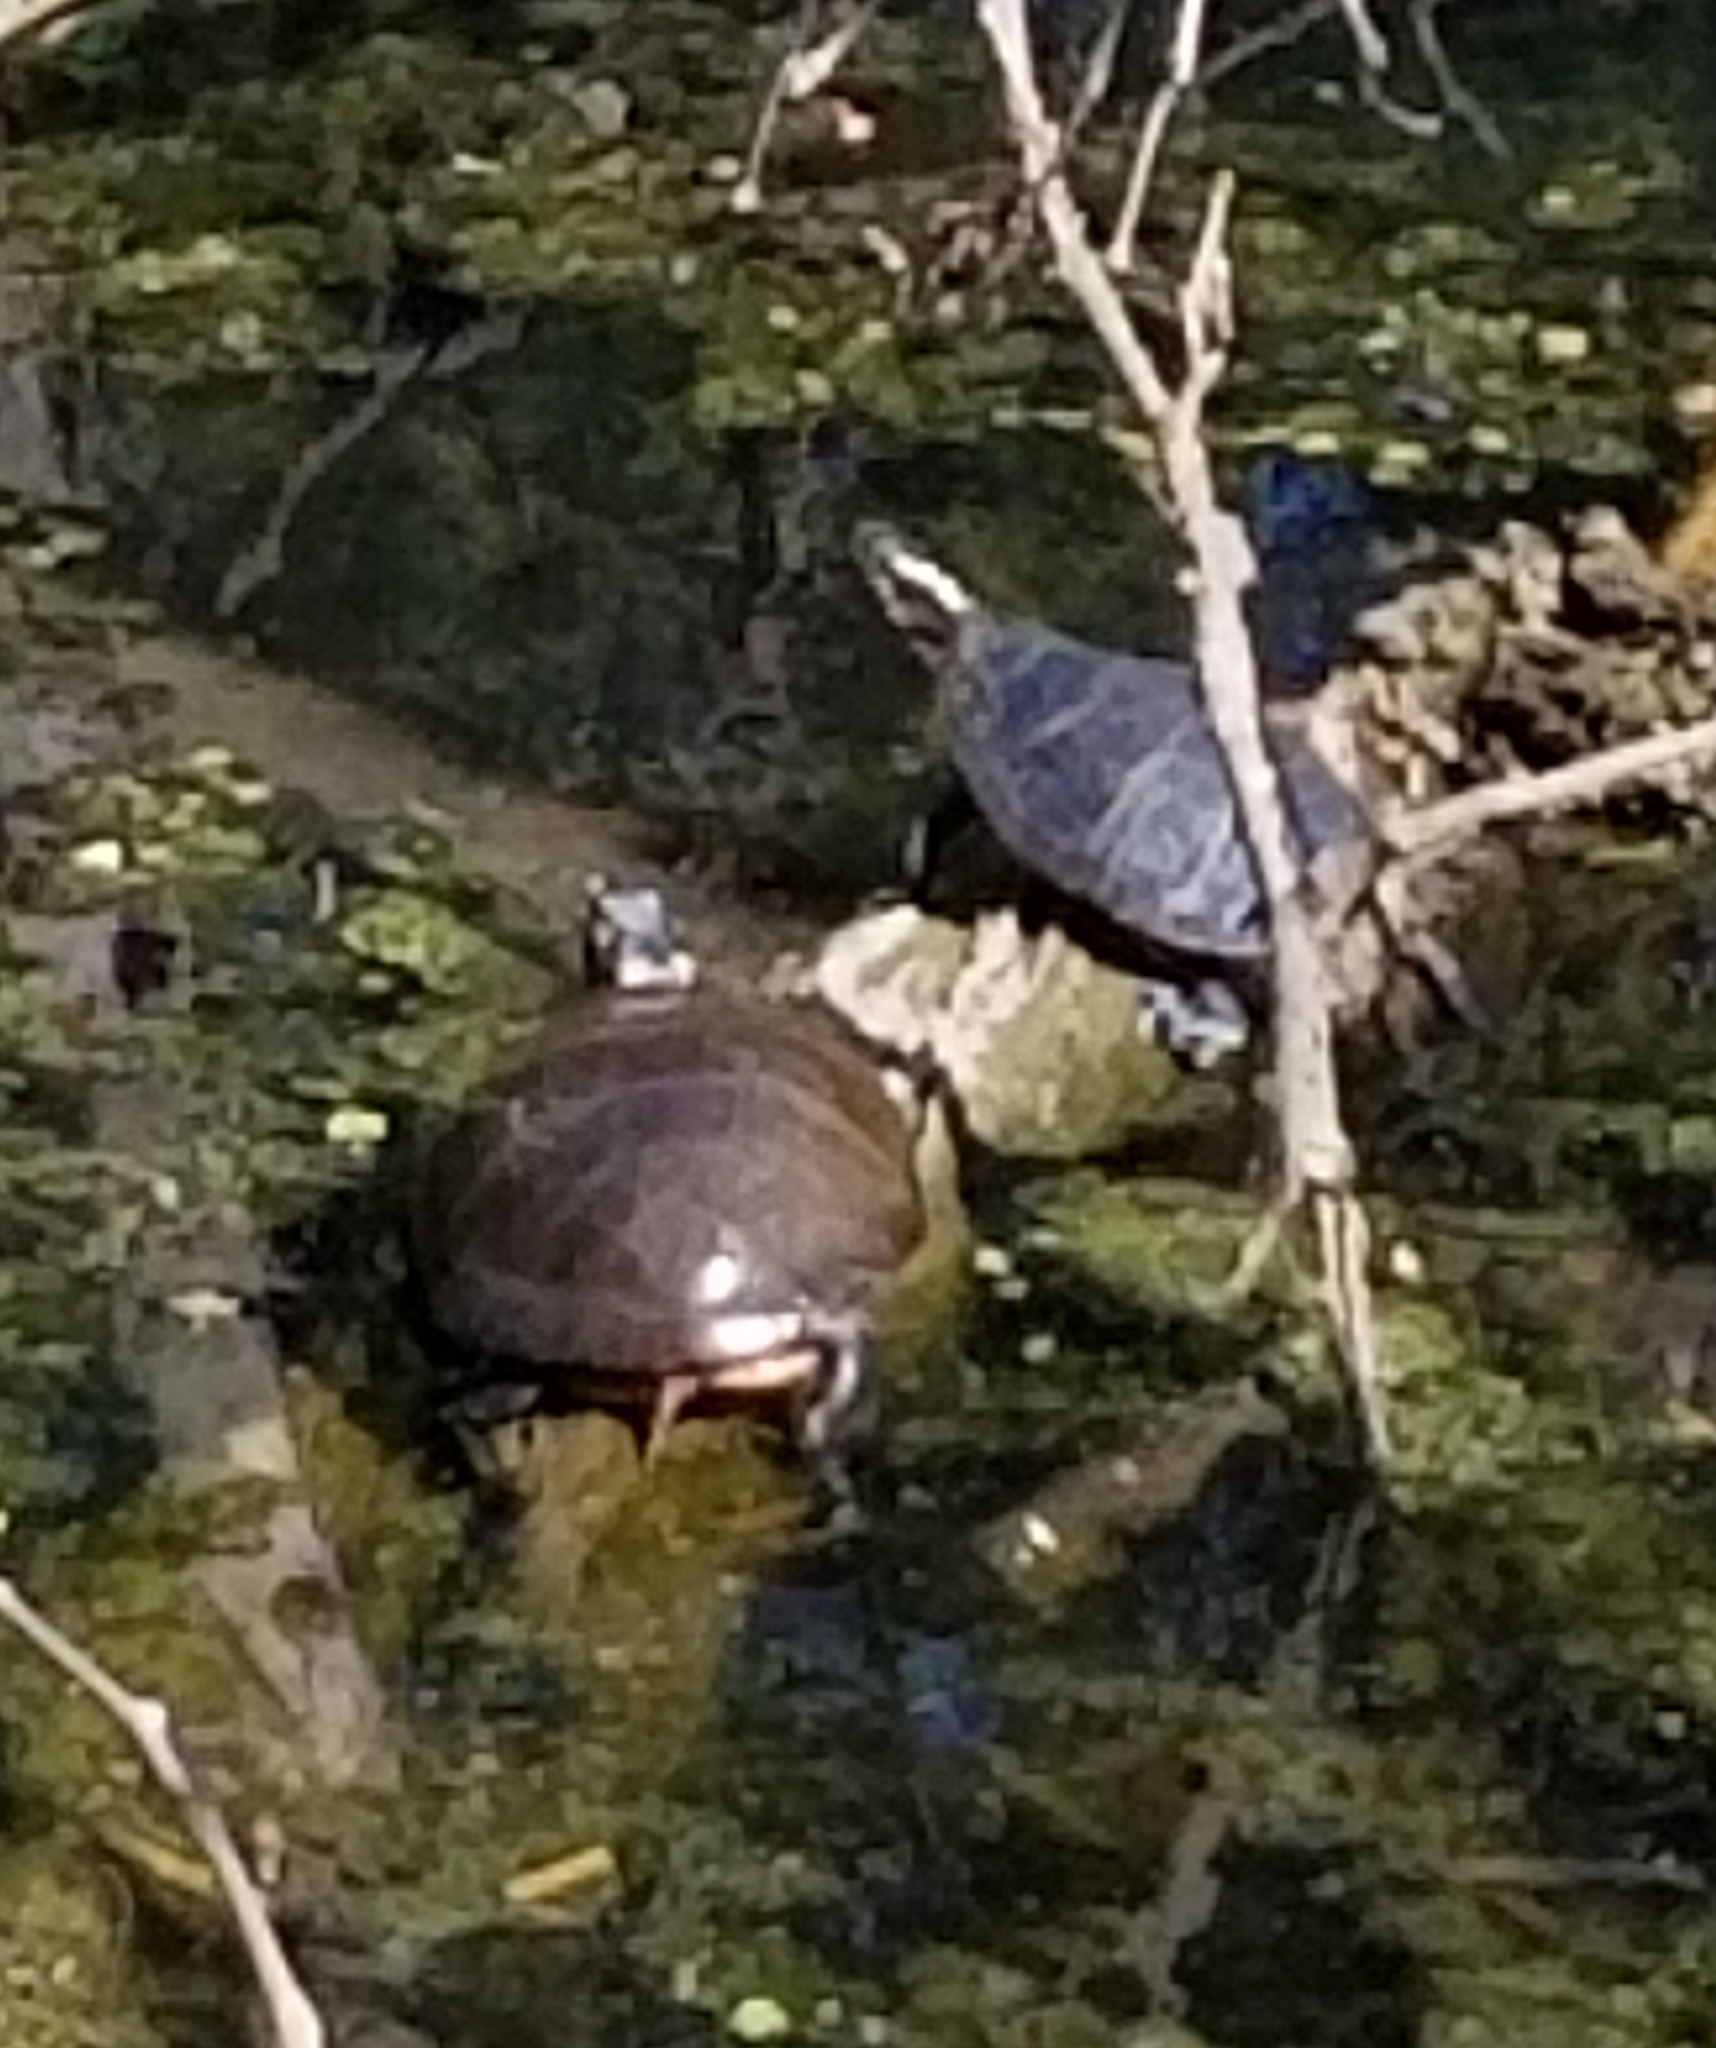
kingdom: Animalia
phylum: Chordata
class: Testudines
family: Emydidae
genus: Chrysemys
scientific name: Chrysemys picta
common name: Painted turtle
